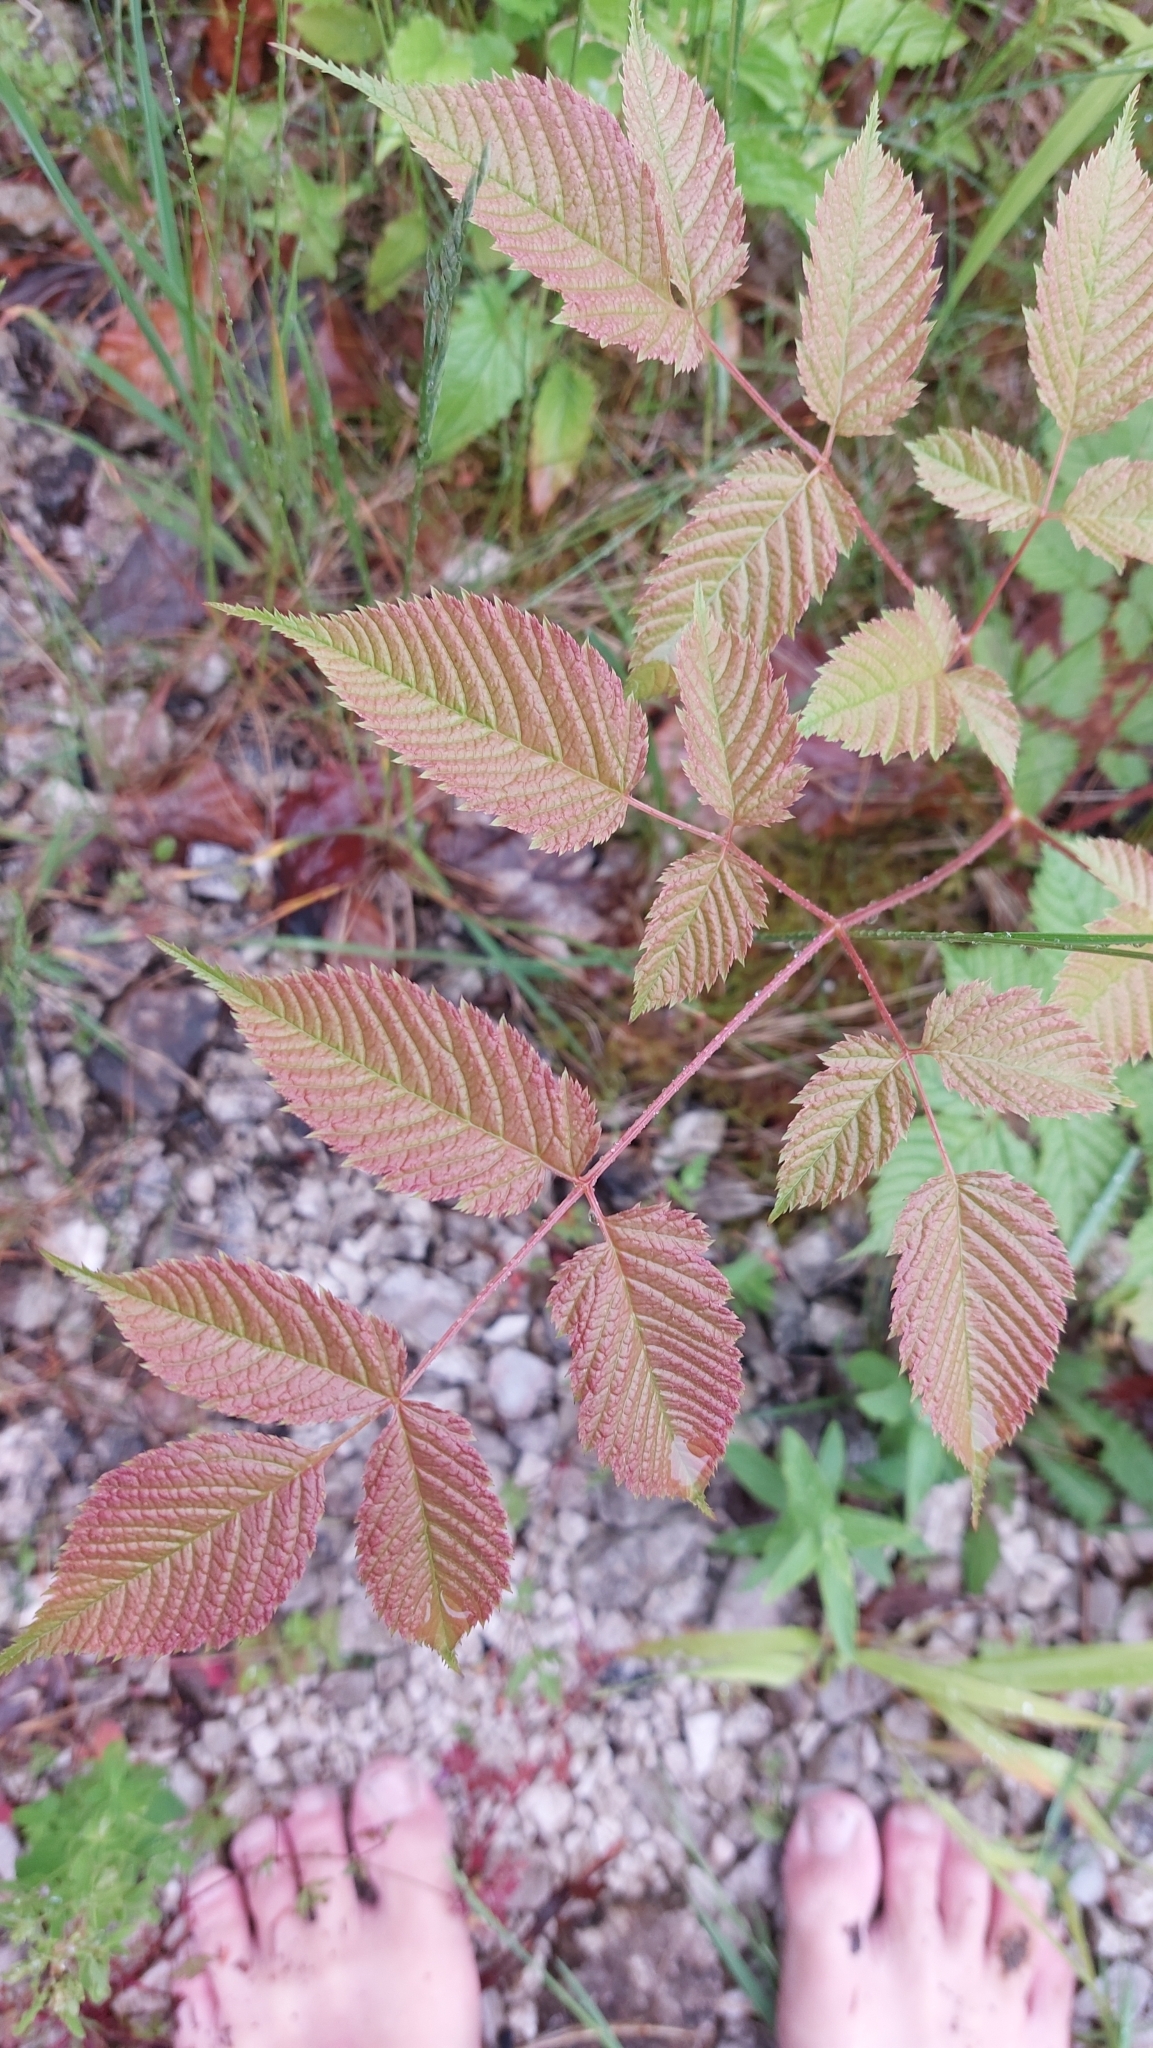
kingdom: Plantae
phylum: Tracheophyta
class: Magnoliopsida
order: Rosales
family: Rosaceae
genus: Aruncus
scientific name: Aruncus dioicus
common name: Buck's-beard
